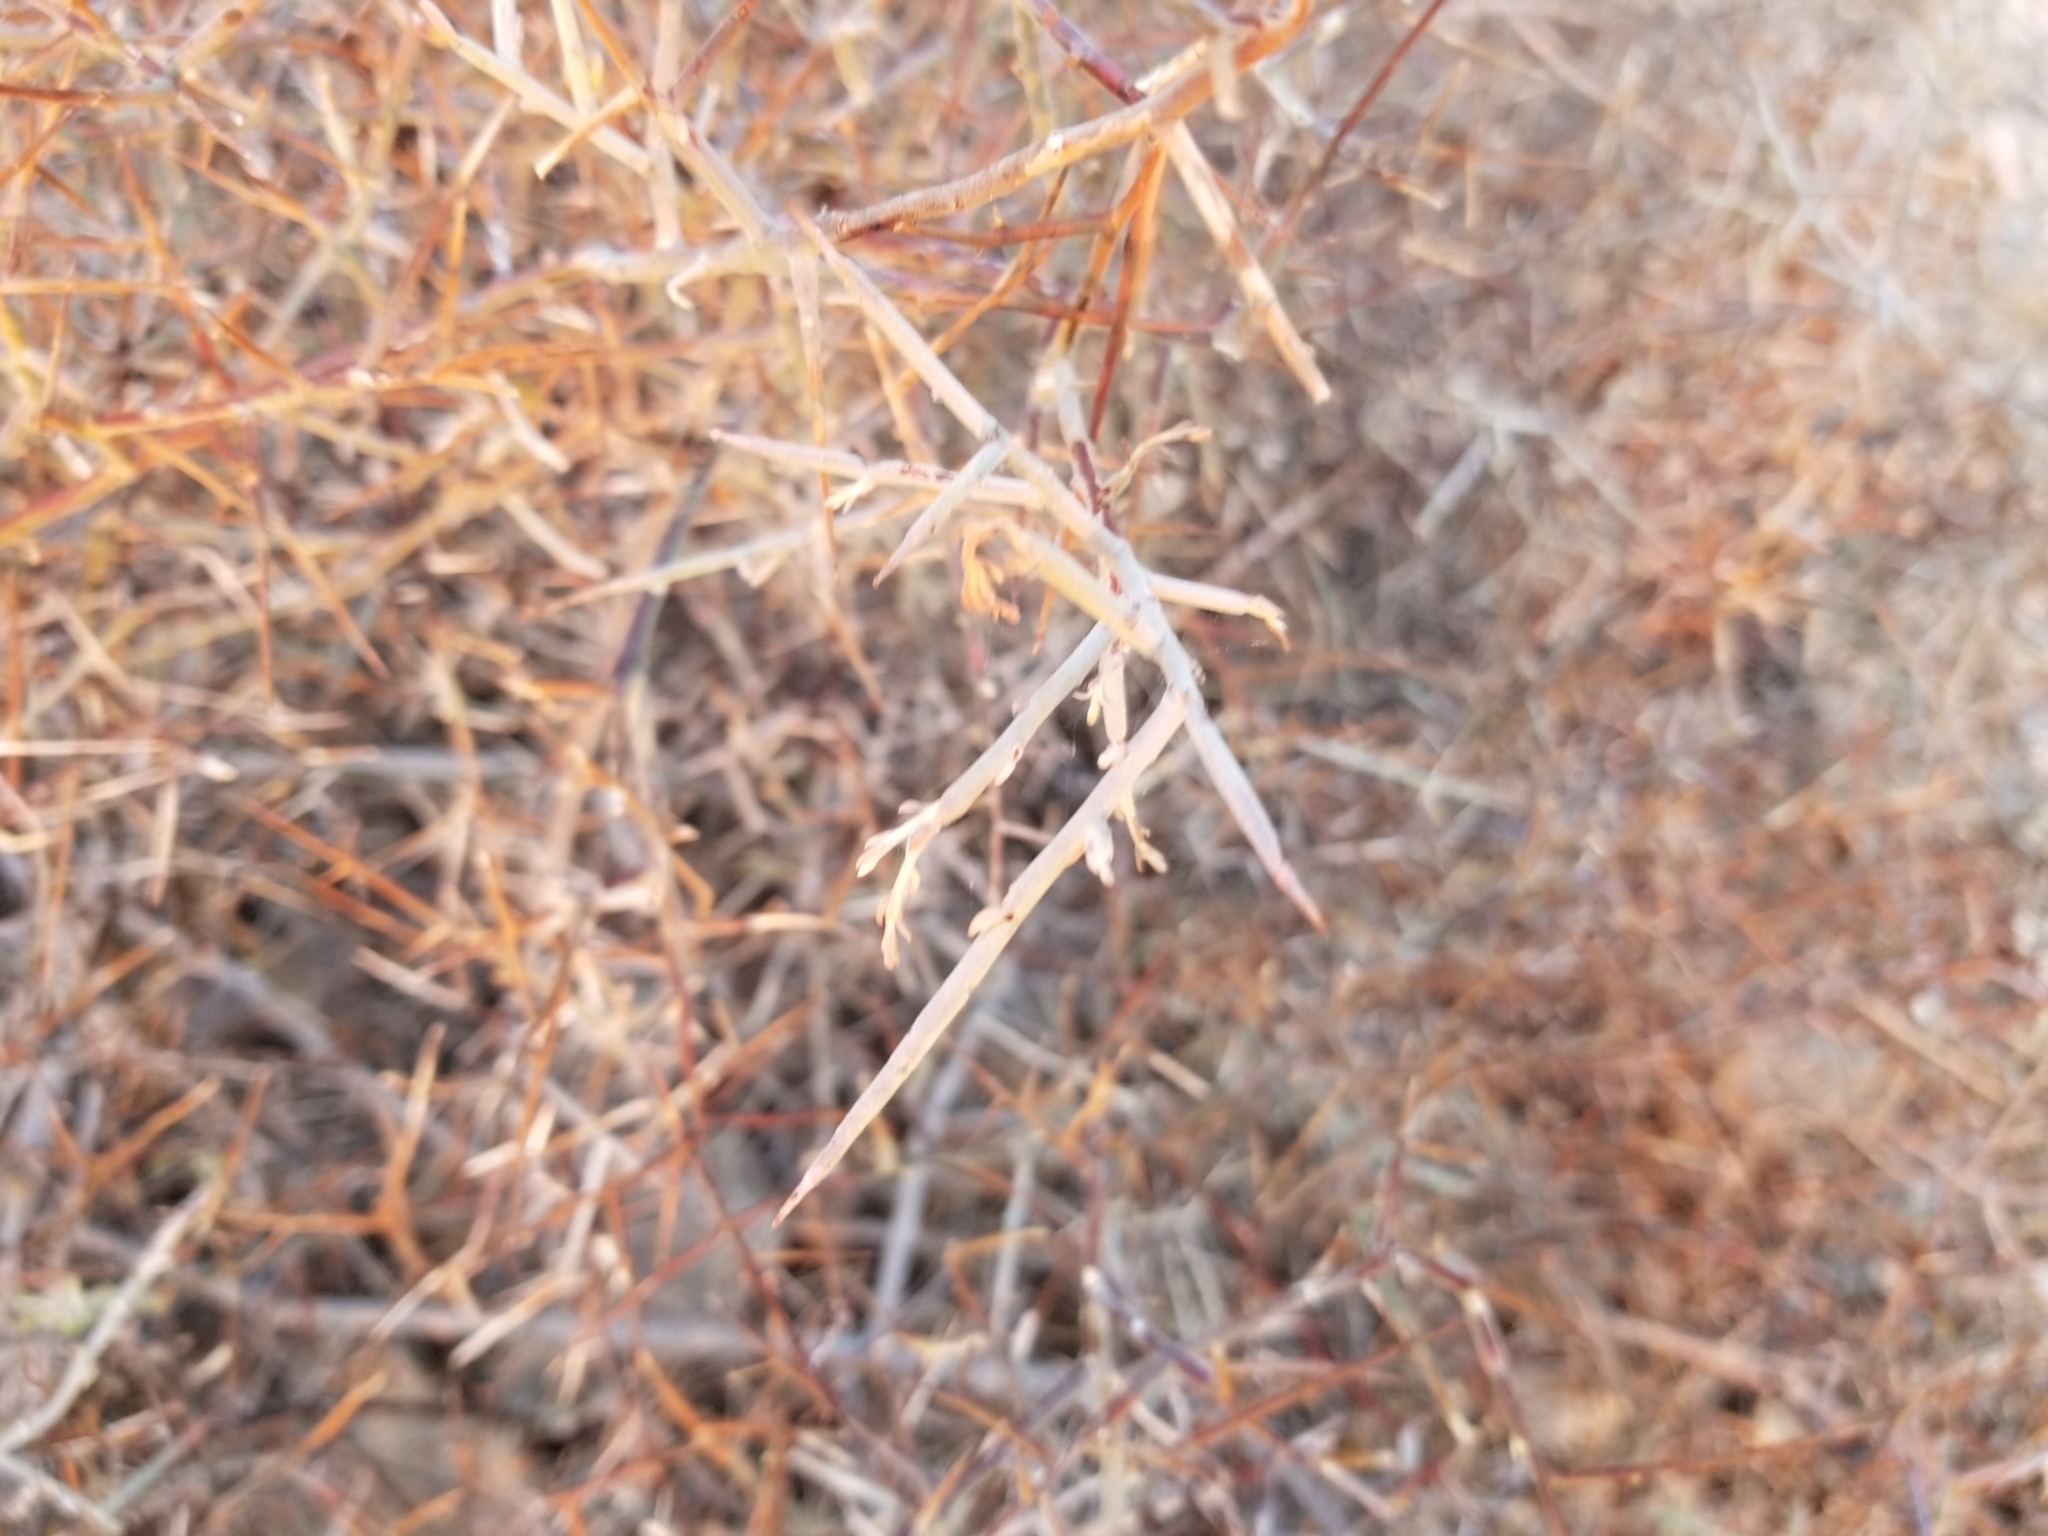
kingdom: Plantae
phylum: Tracheophyta
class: Magnoliopsida
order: Zygophyllales
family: Krameriaceae
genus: Krameria
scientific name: Krameria bicolor
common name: White ratany
